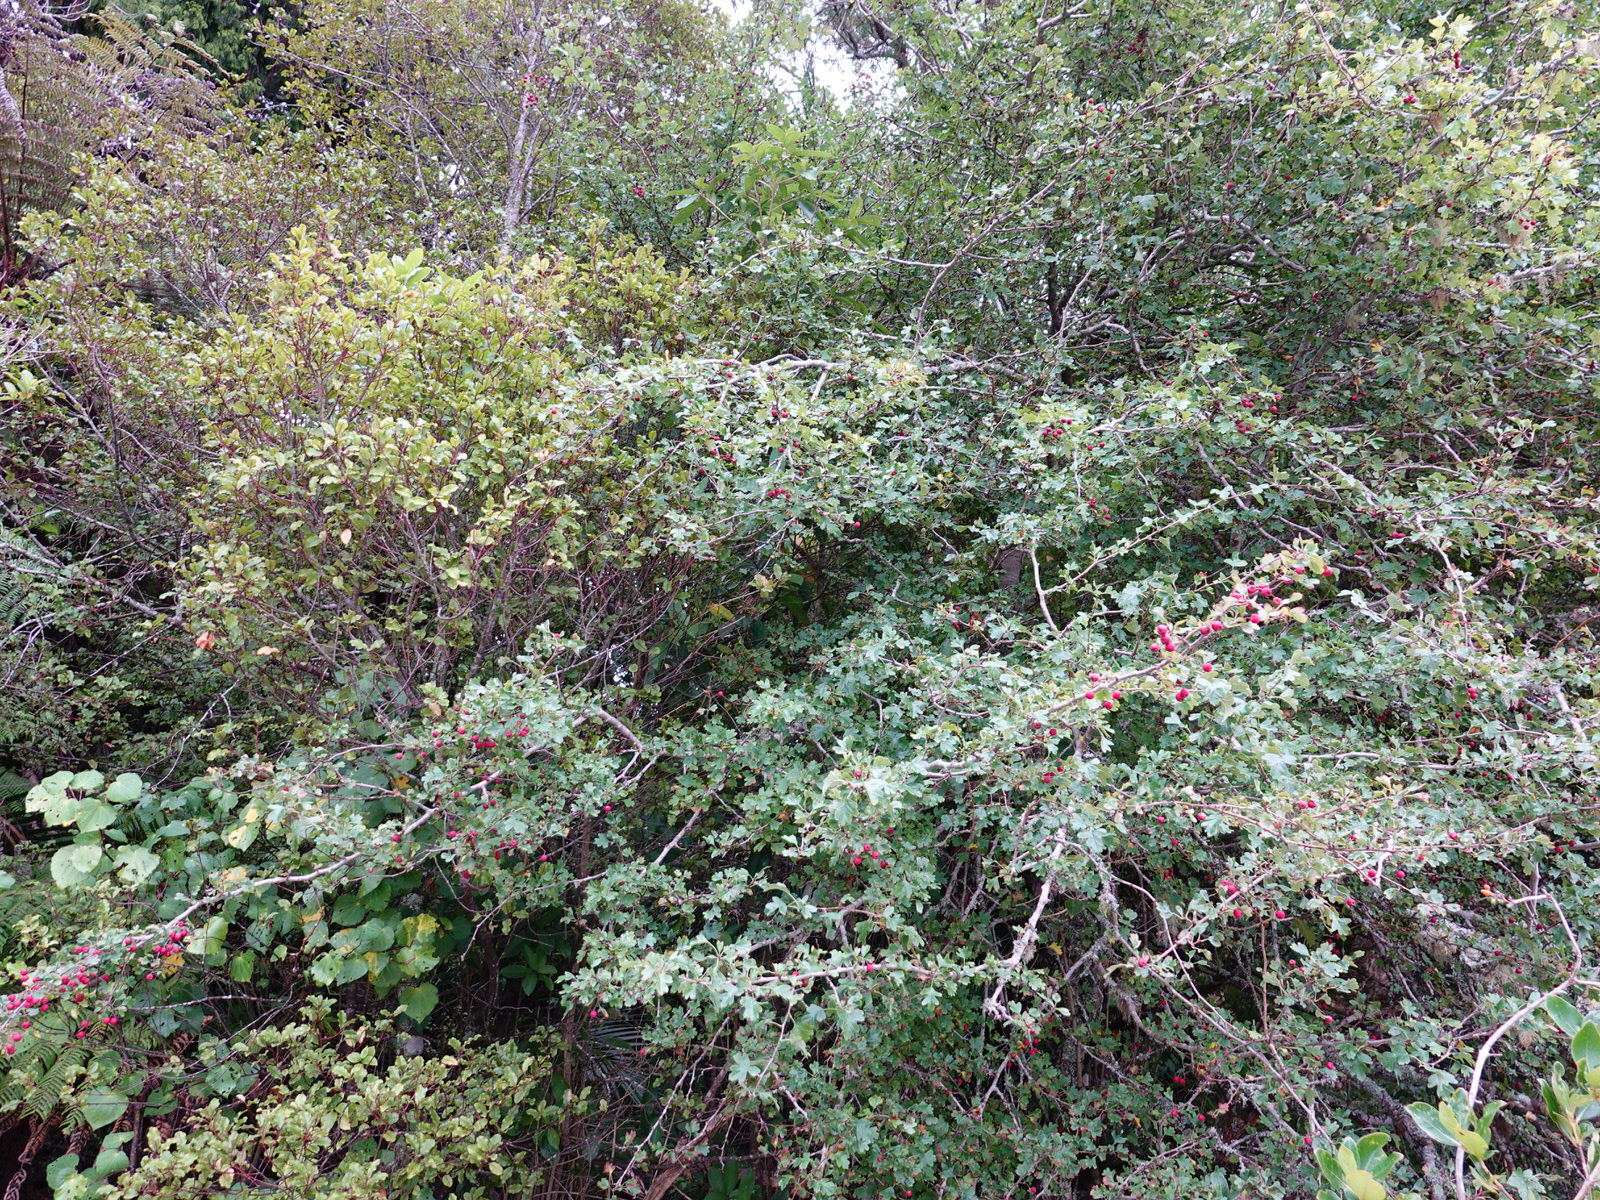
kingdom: Plantae
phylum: Tracheophyta
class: Magnoliopsida
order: Rosales
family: Rosaceae
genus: Crataegus
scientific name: Crataegus monogyna
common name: Hawthorn
